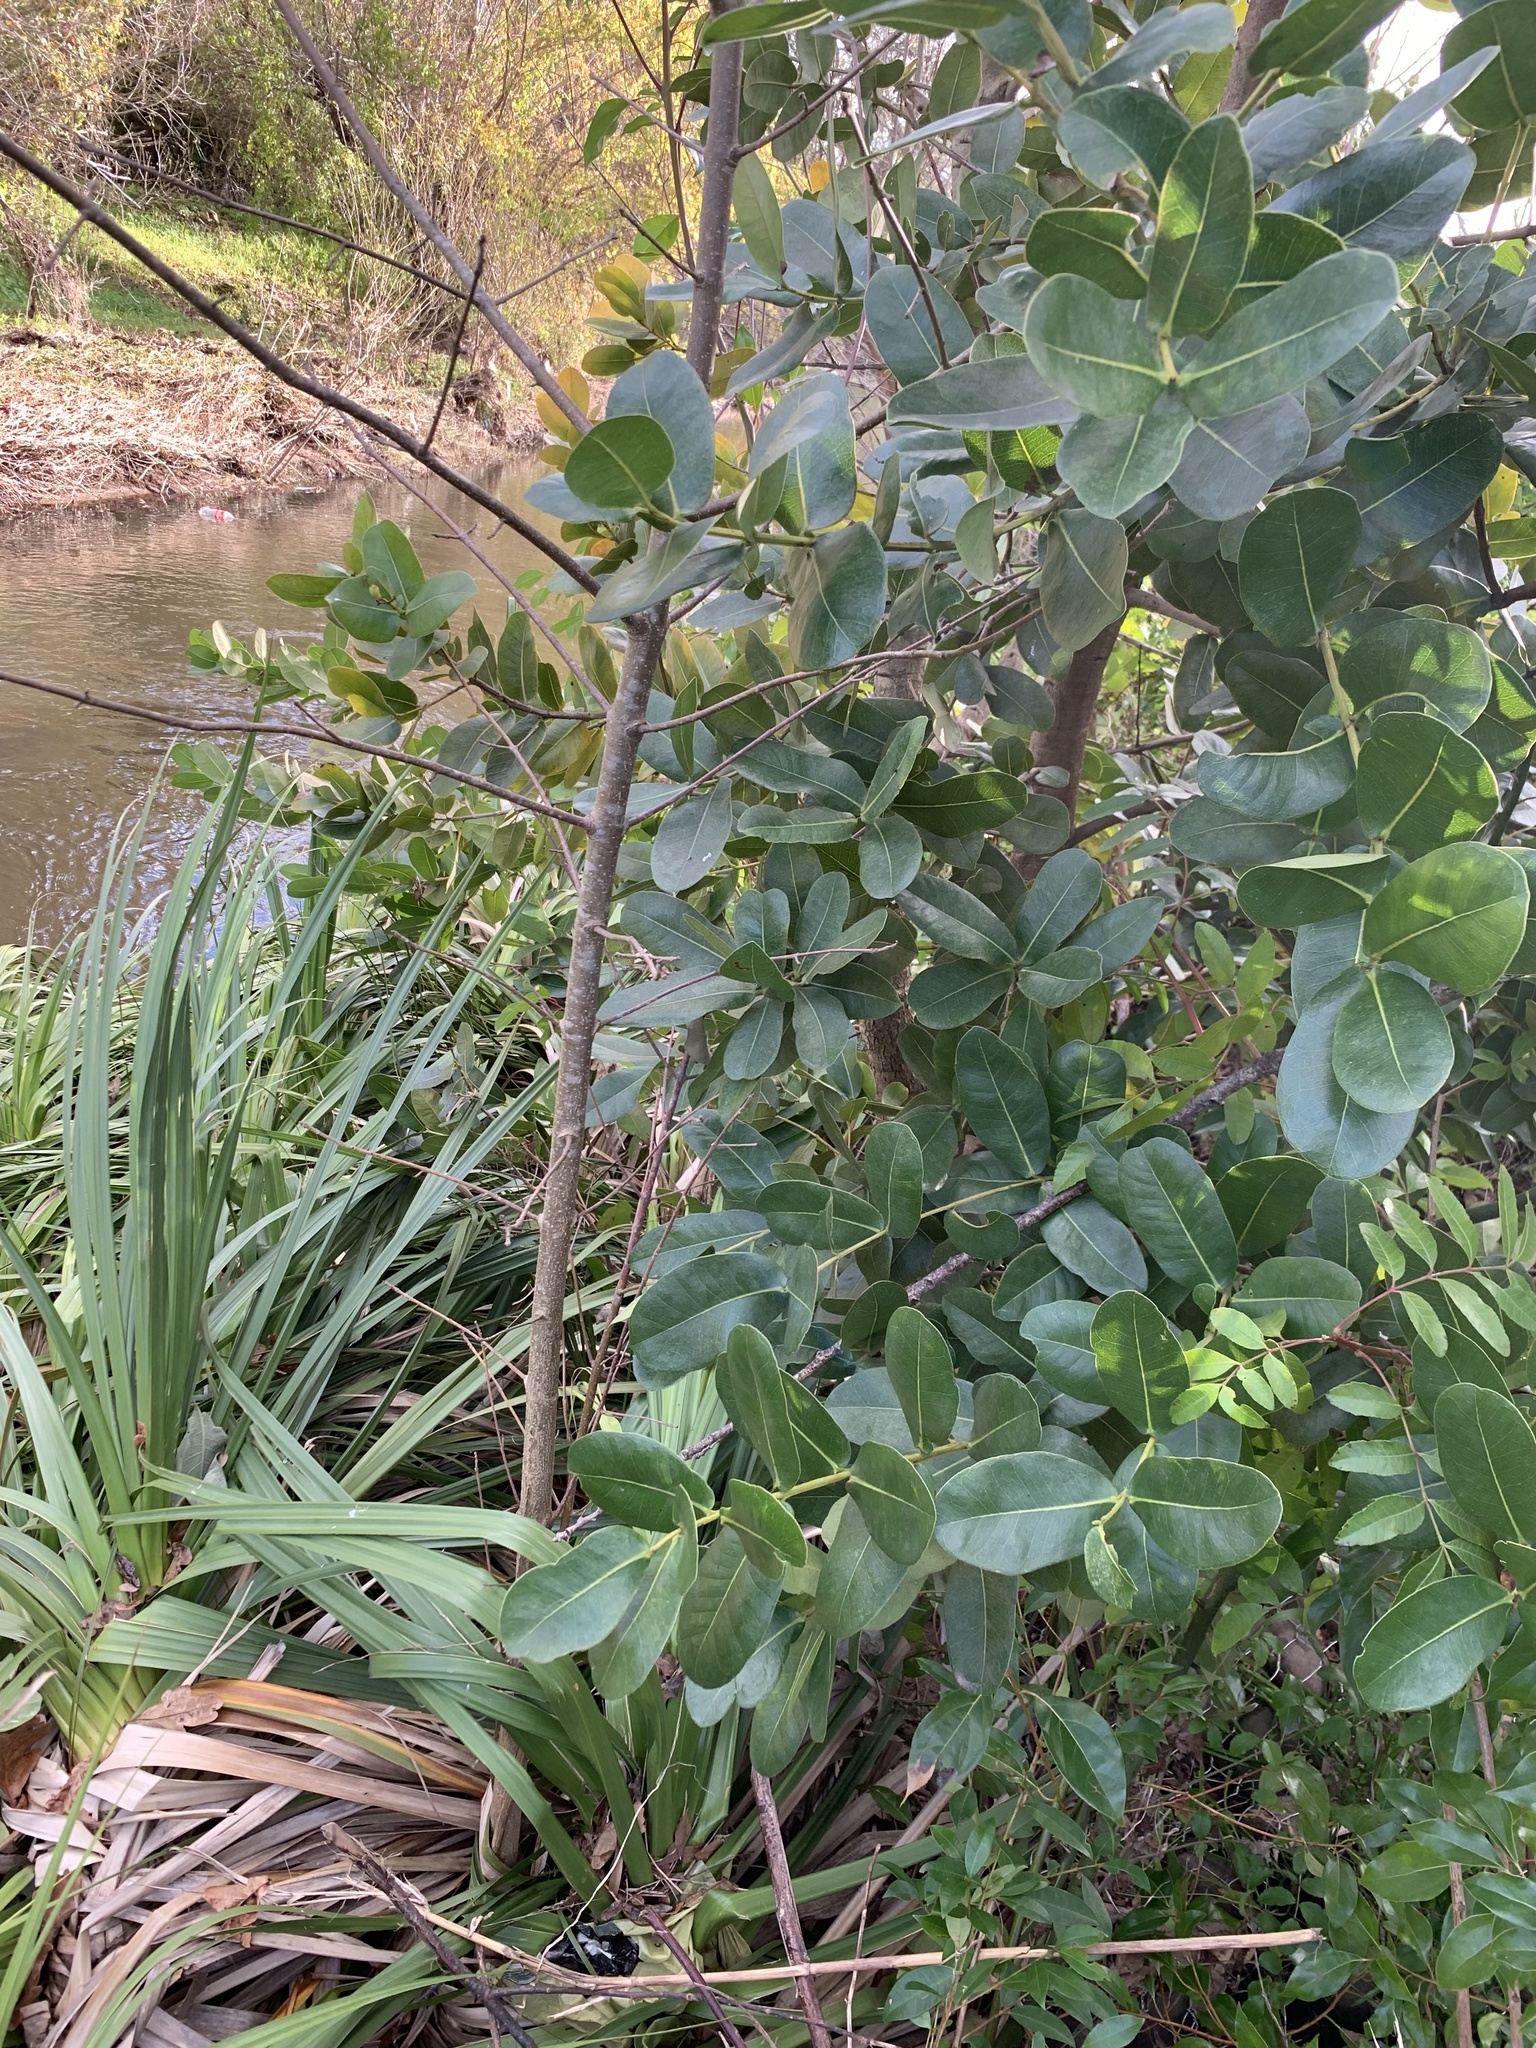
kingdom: Plantae
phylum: Tracheophyta
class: Magnoliopsida
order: Myrtales
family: Myrtaceae
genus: Syzygium
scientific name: Syzygium cordatum
